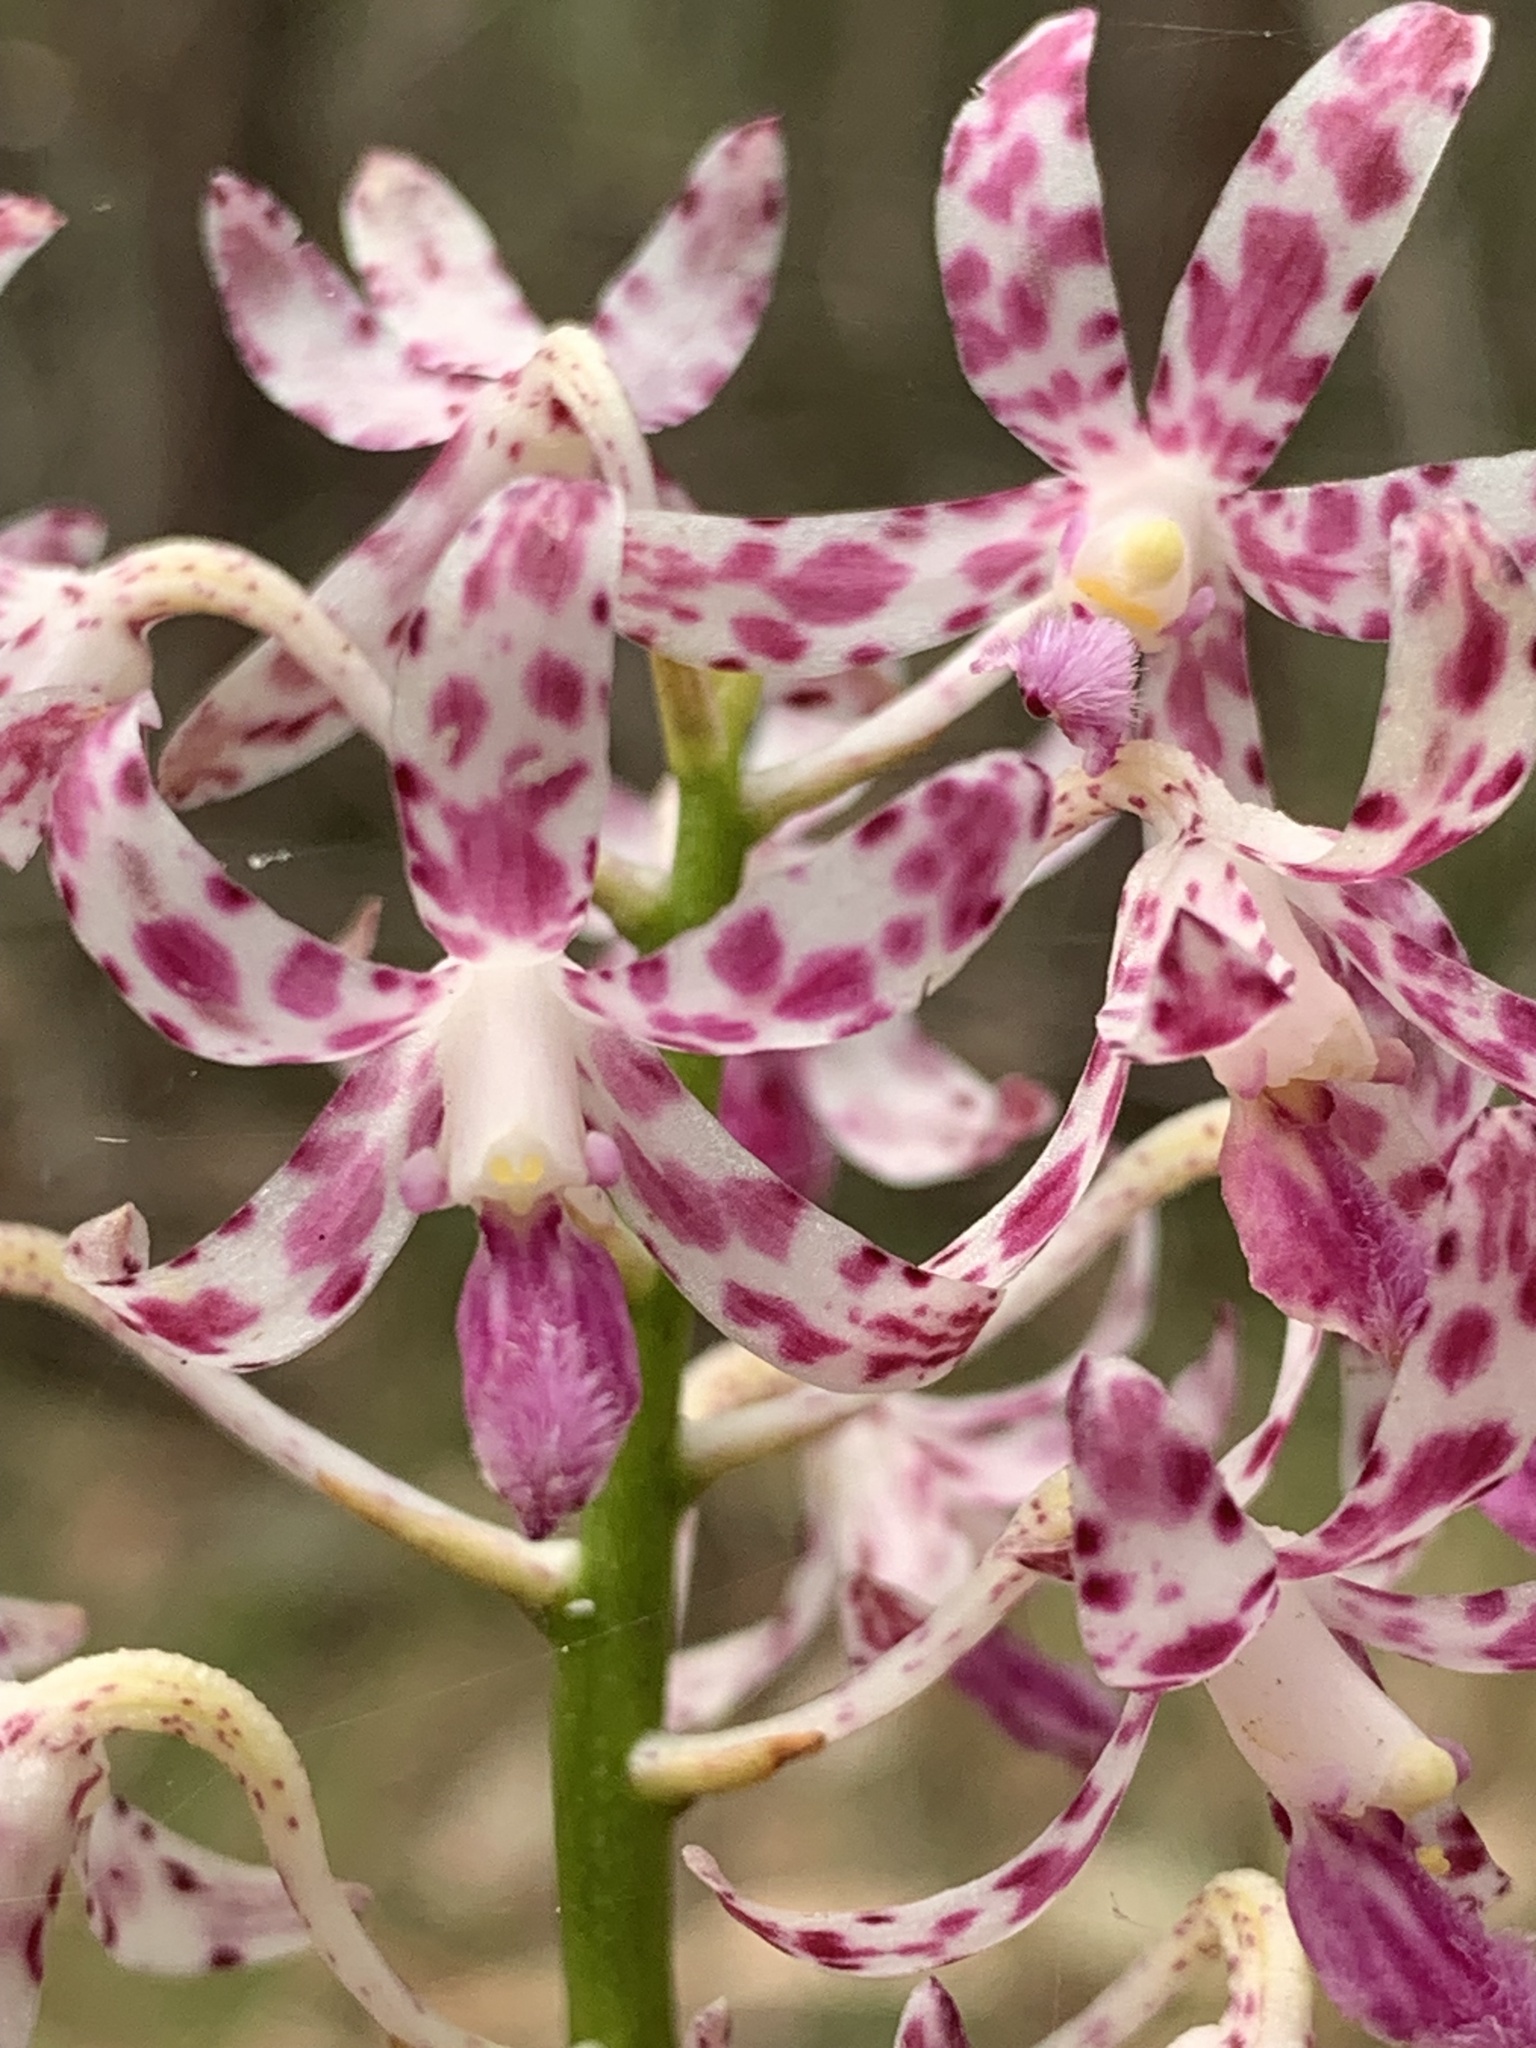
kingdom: Plantae
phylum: Tracheophyta
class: Liliopsida
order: Asparagales
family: Orchidaceae
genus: Dipodium
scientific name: Dipodium variegatum
